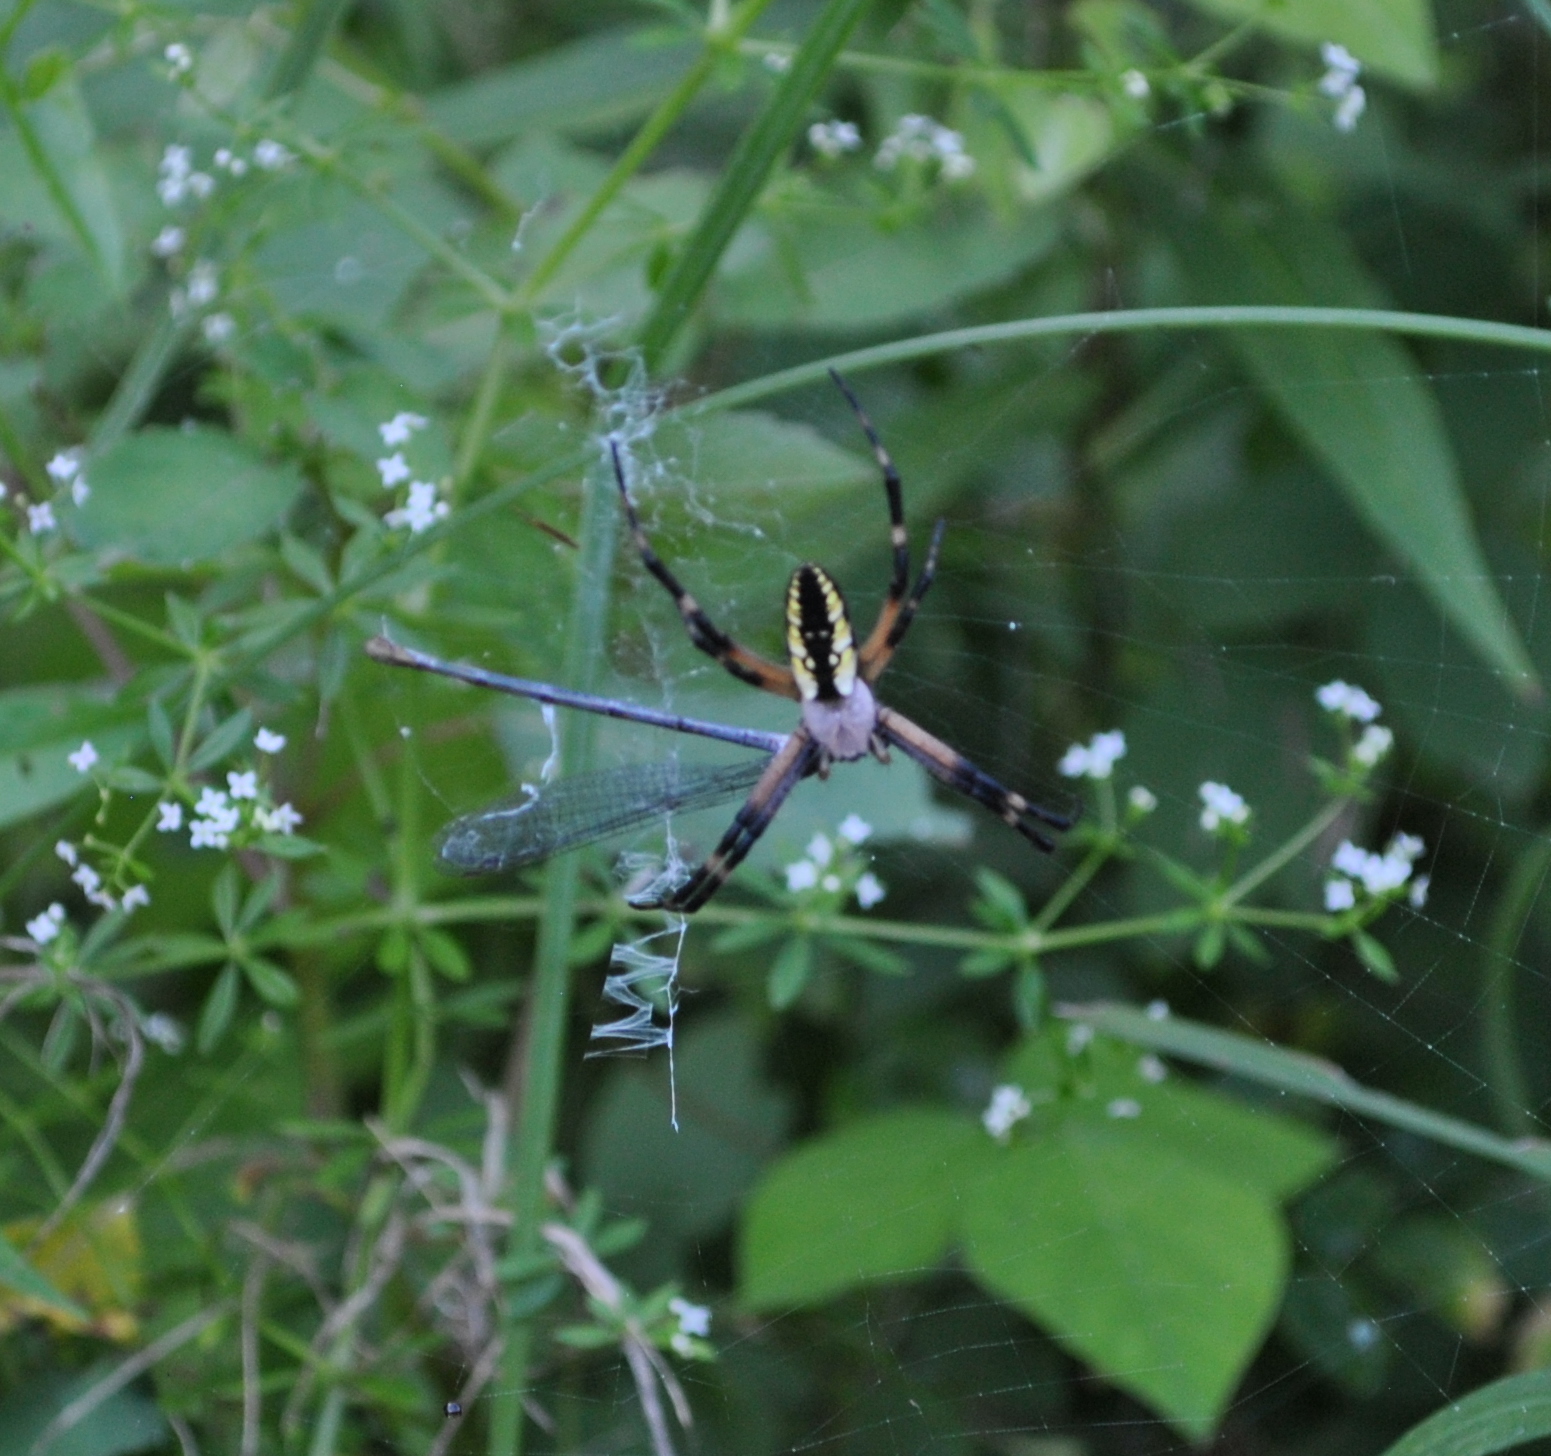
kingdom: Animalia
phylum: Arthropoda
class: Arachnida
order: Araneae
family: Araneidae
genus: Argiope
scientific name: Argiope aurantia
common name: Orb weavers
